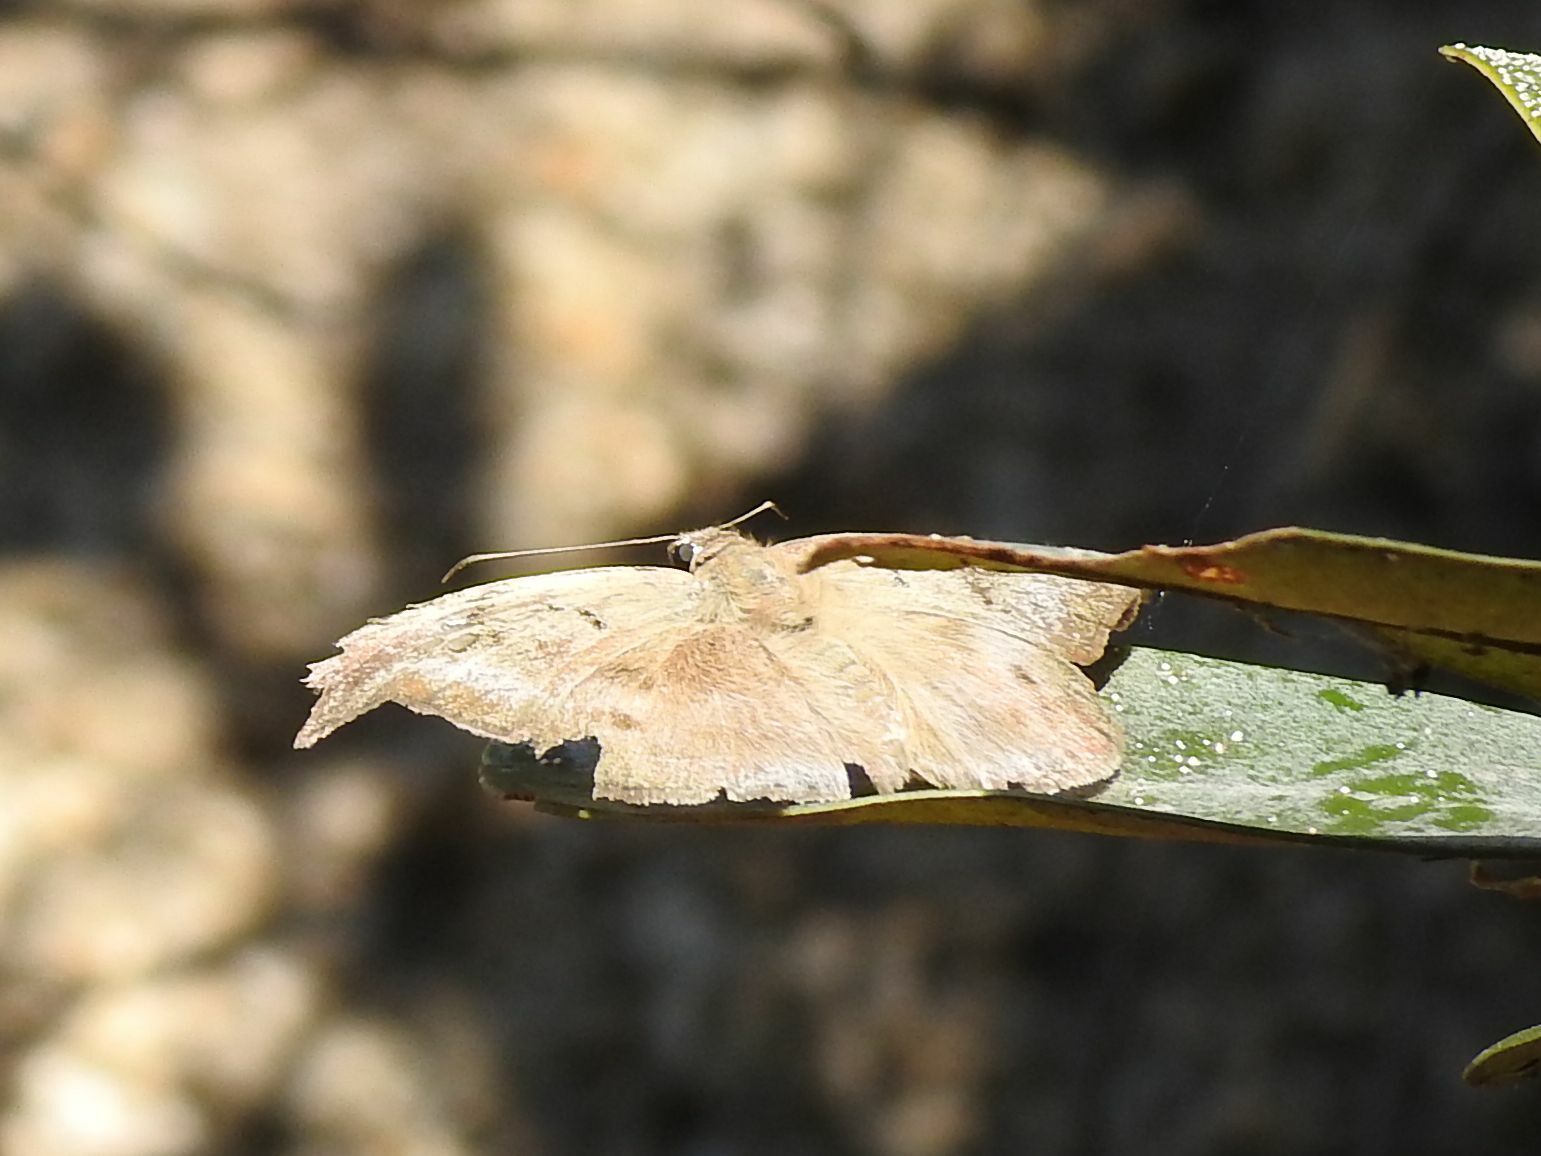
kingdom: Animalia
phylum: Arthropoda
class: Insecta
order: Lepidoptera
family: Hesperiidae
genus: Tagiades
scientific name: Tagiades flesus
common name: Clouded flat
